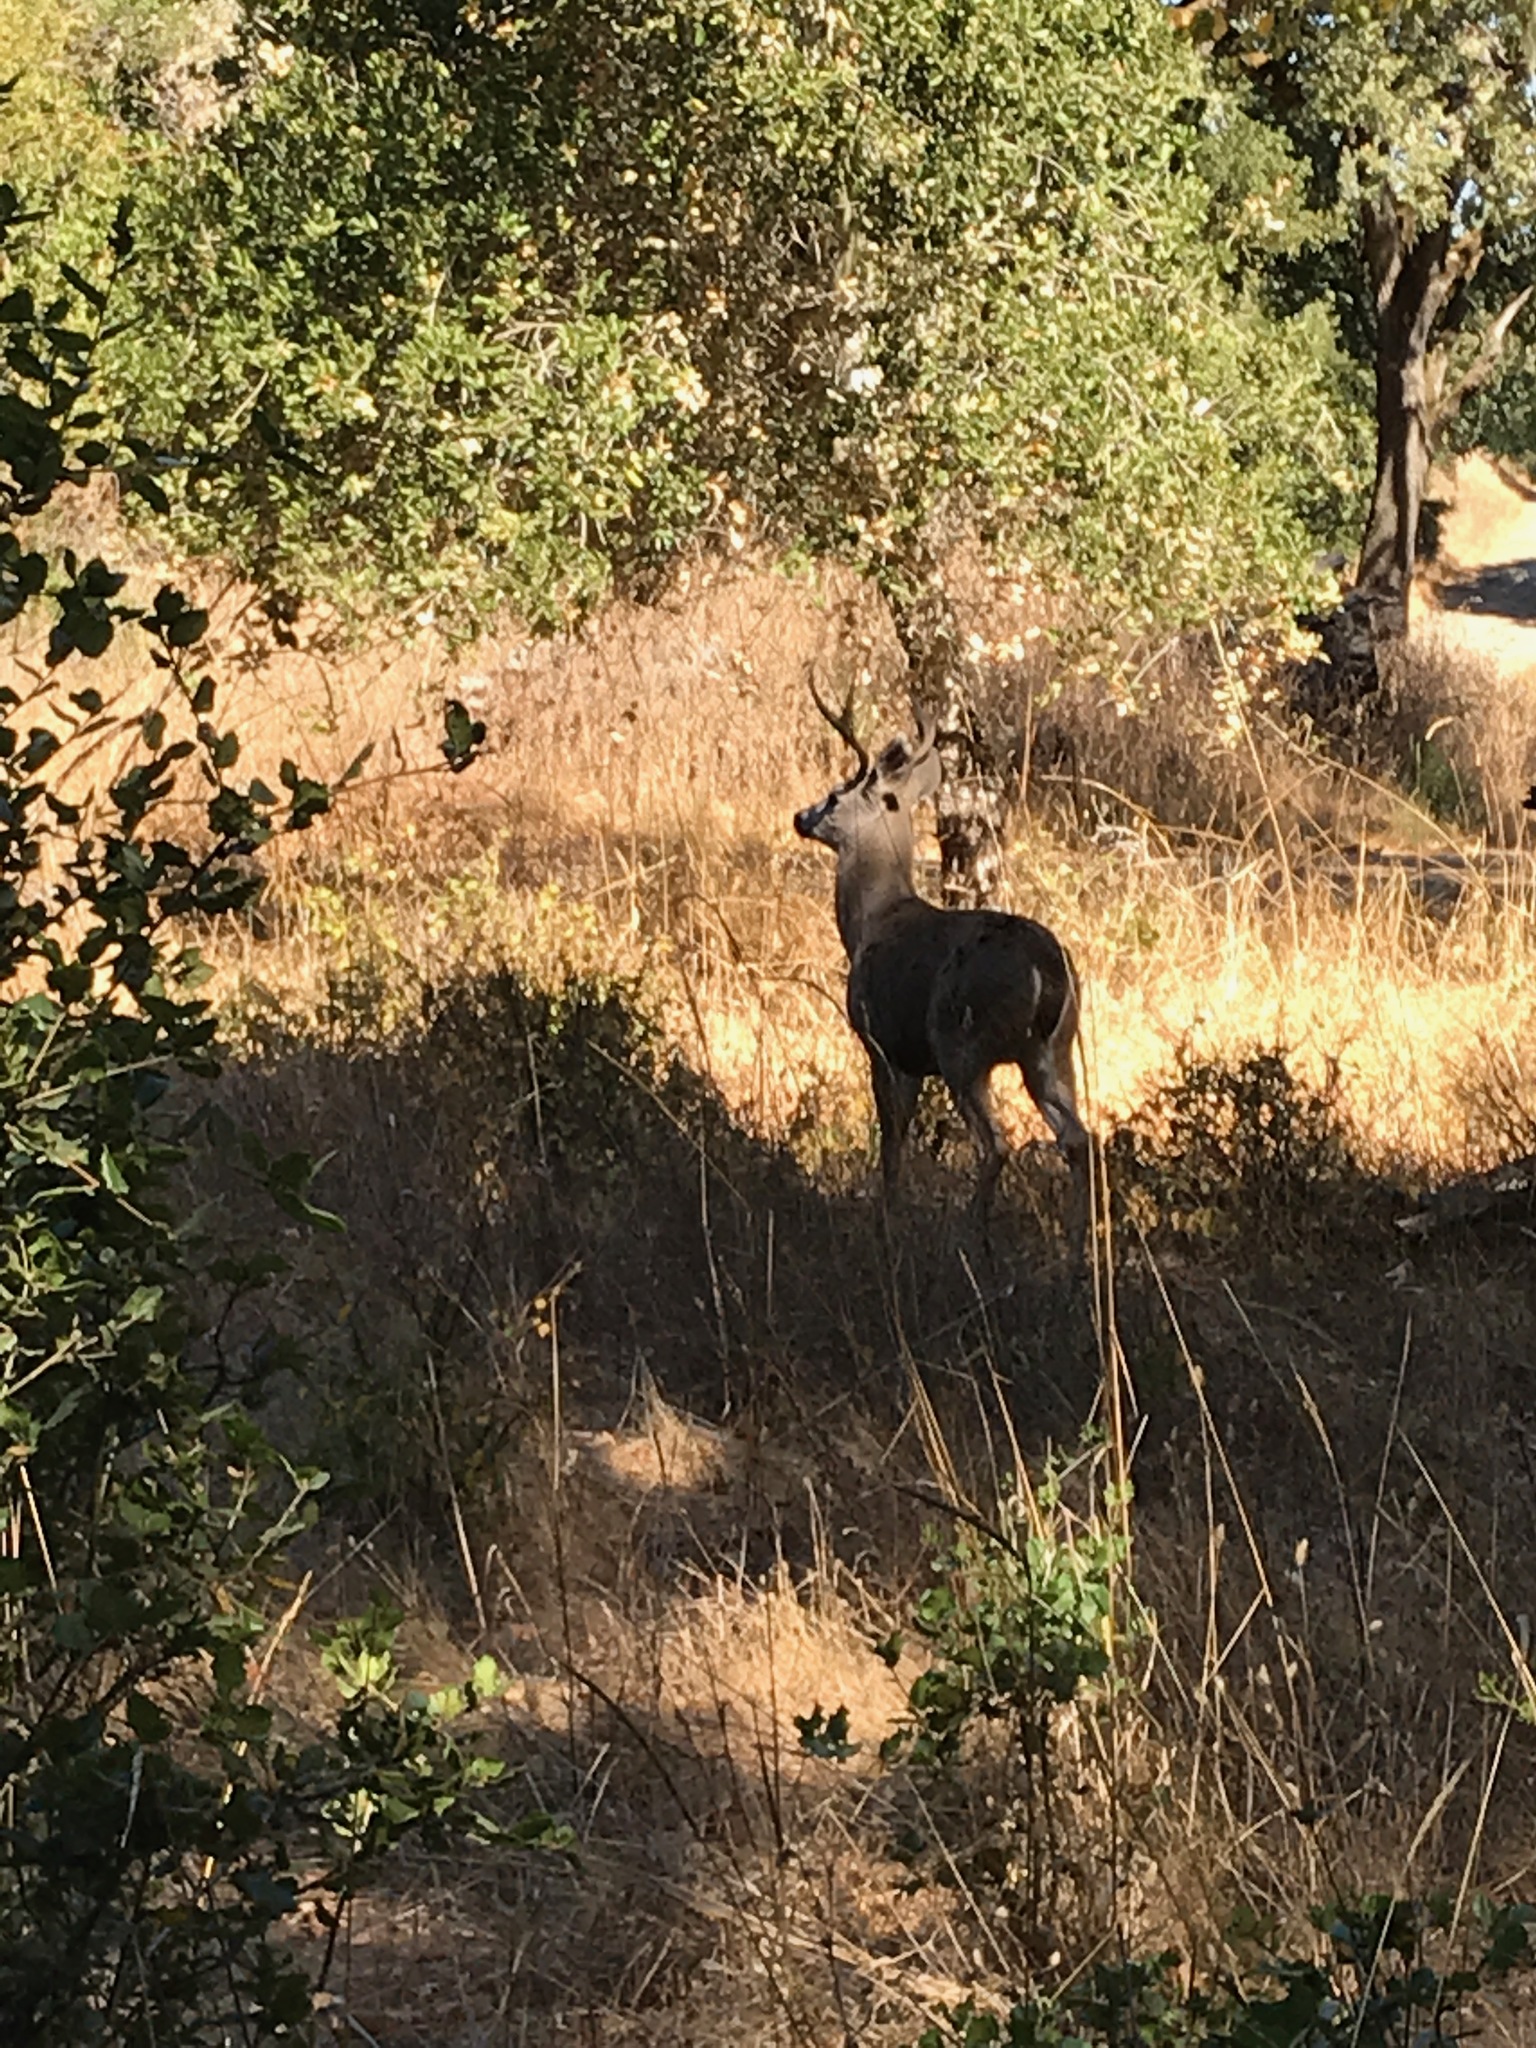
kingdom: Animalia
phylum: Chordata
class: Mammalia
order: Artiodactyla
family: Cervidae
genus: Odocoileus
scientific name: Odocoileus hemionus
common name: Mule deer
